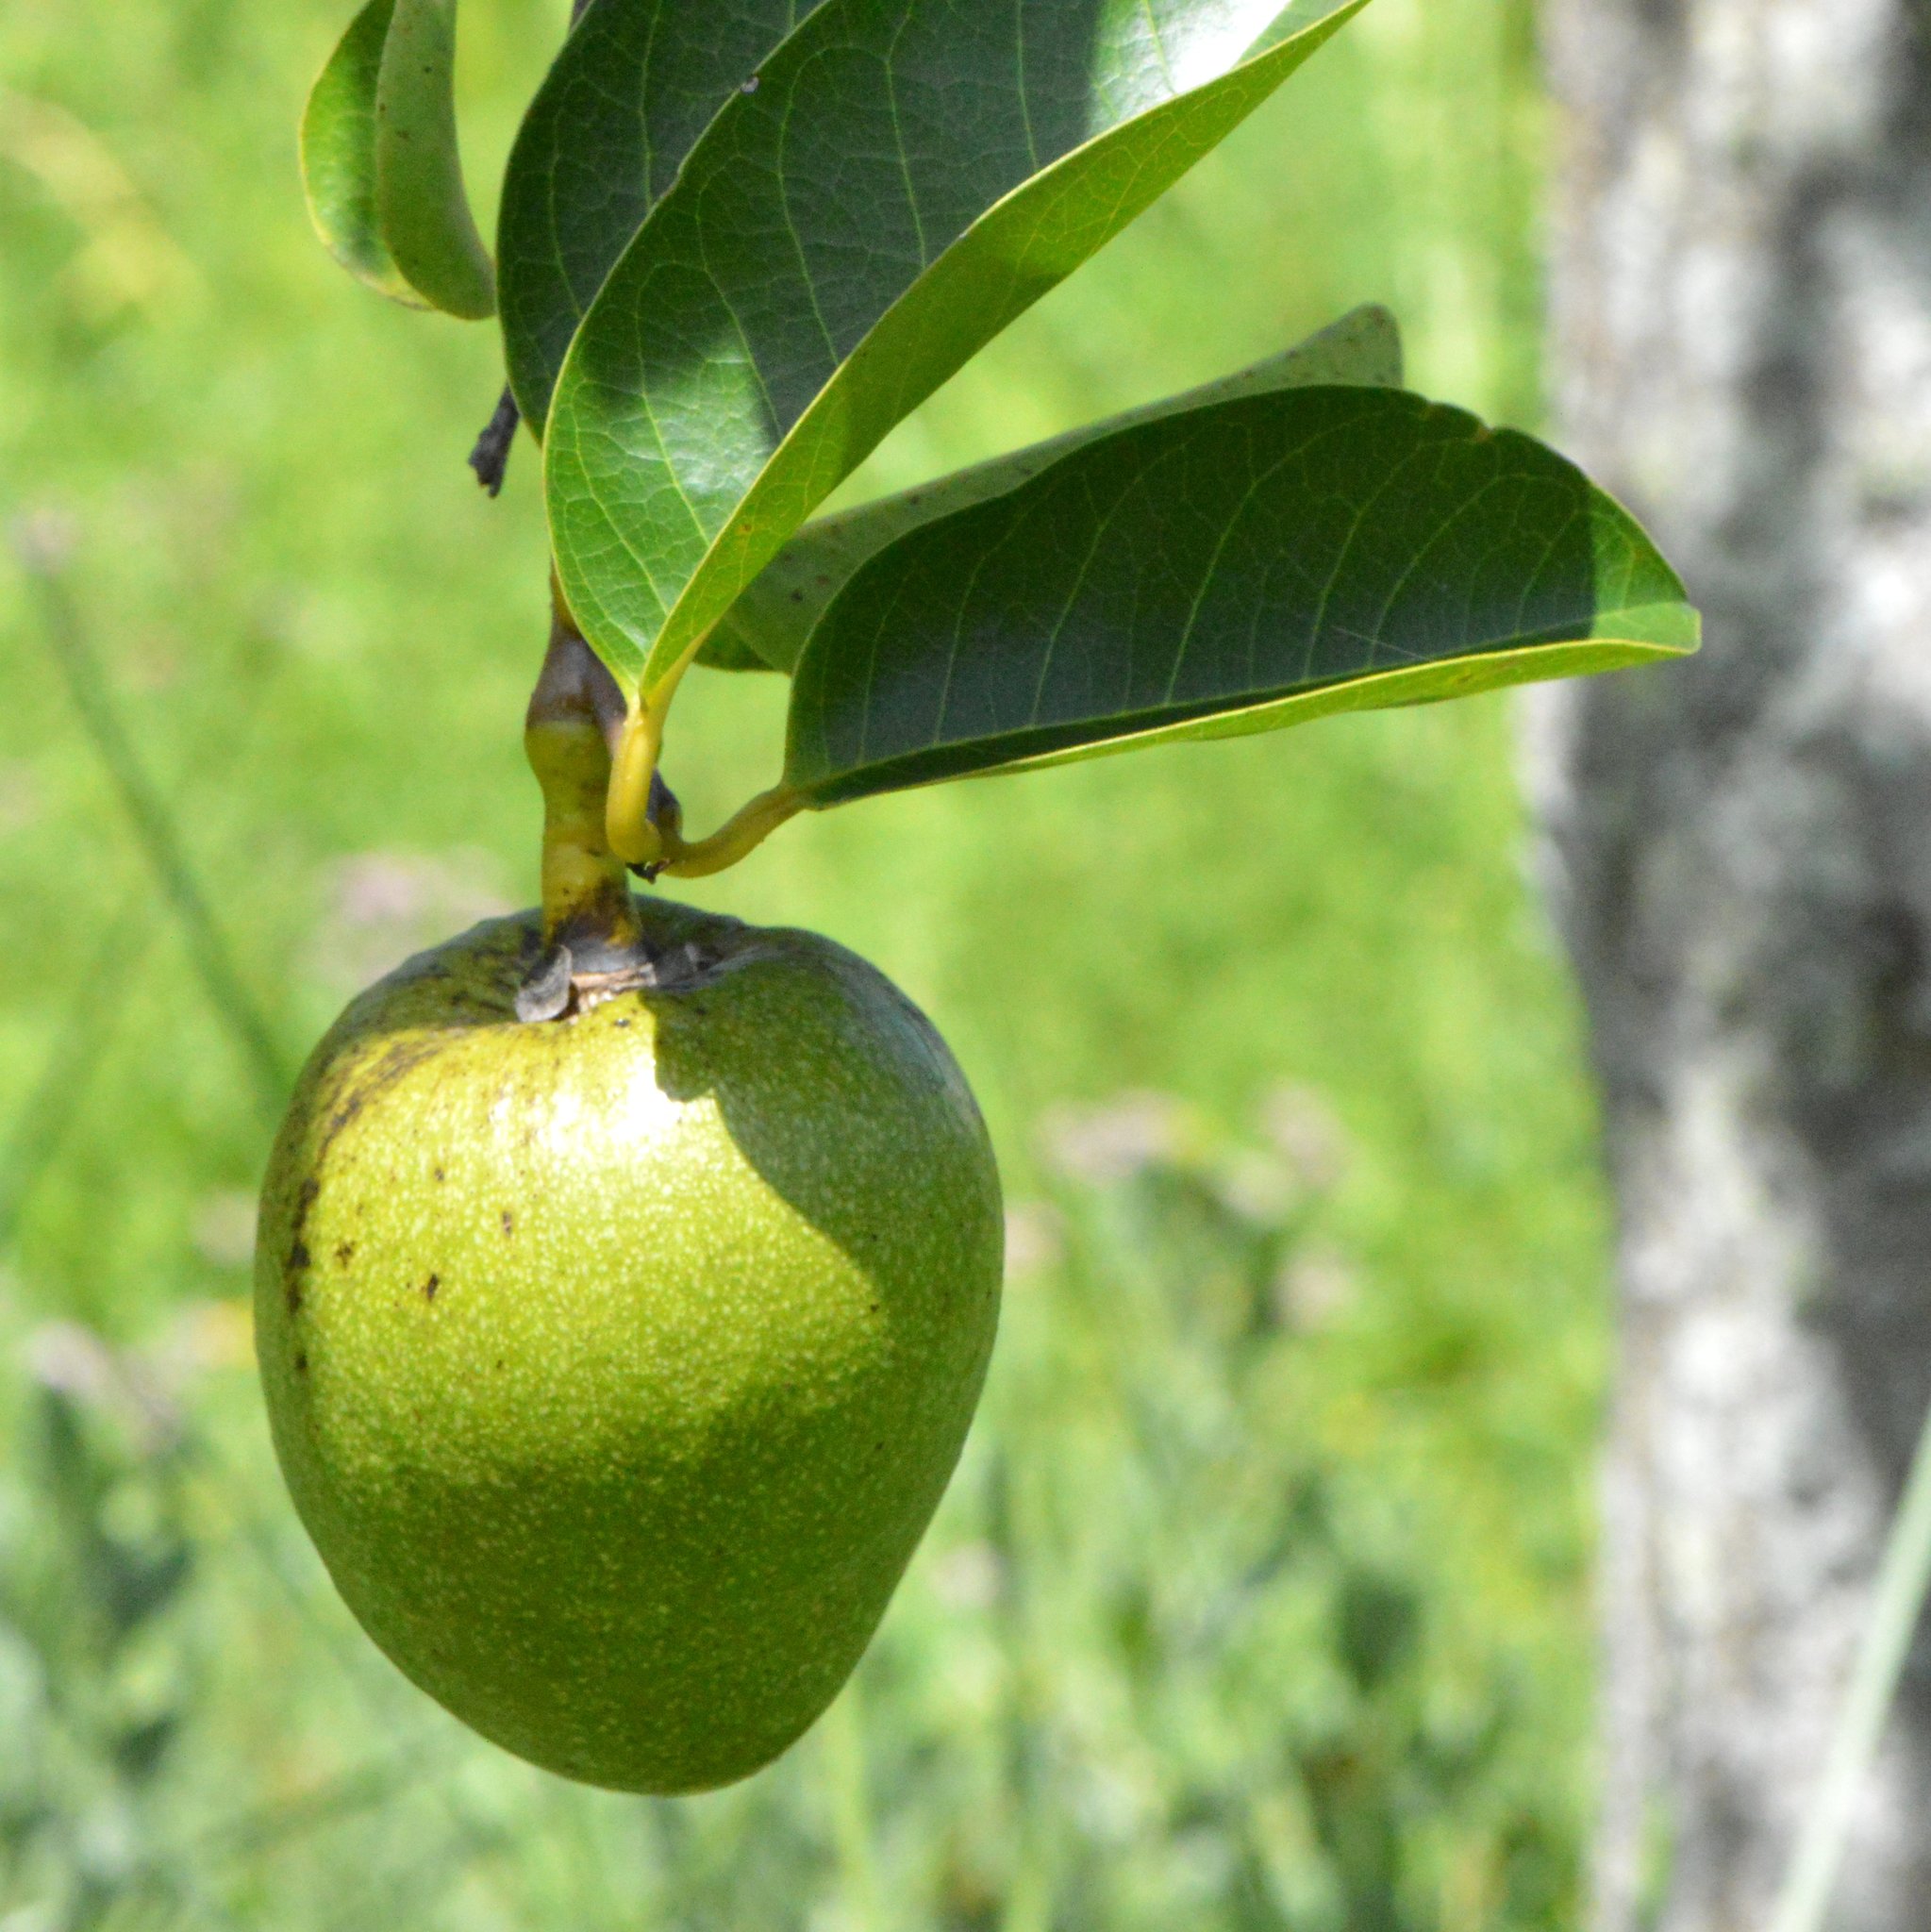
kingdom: Plantae
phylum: Tracheophyta
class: Magnoliopsida
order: Magnoliales
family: Annonaceae
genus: Annona
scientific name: Annona glabra
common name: Monkey apple
